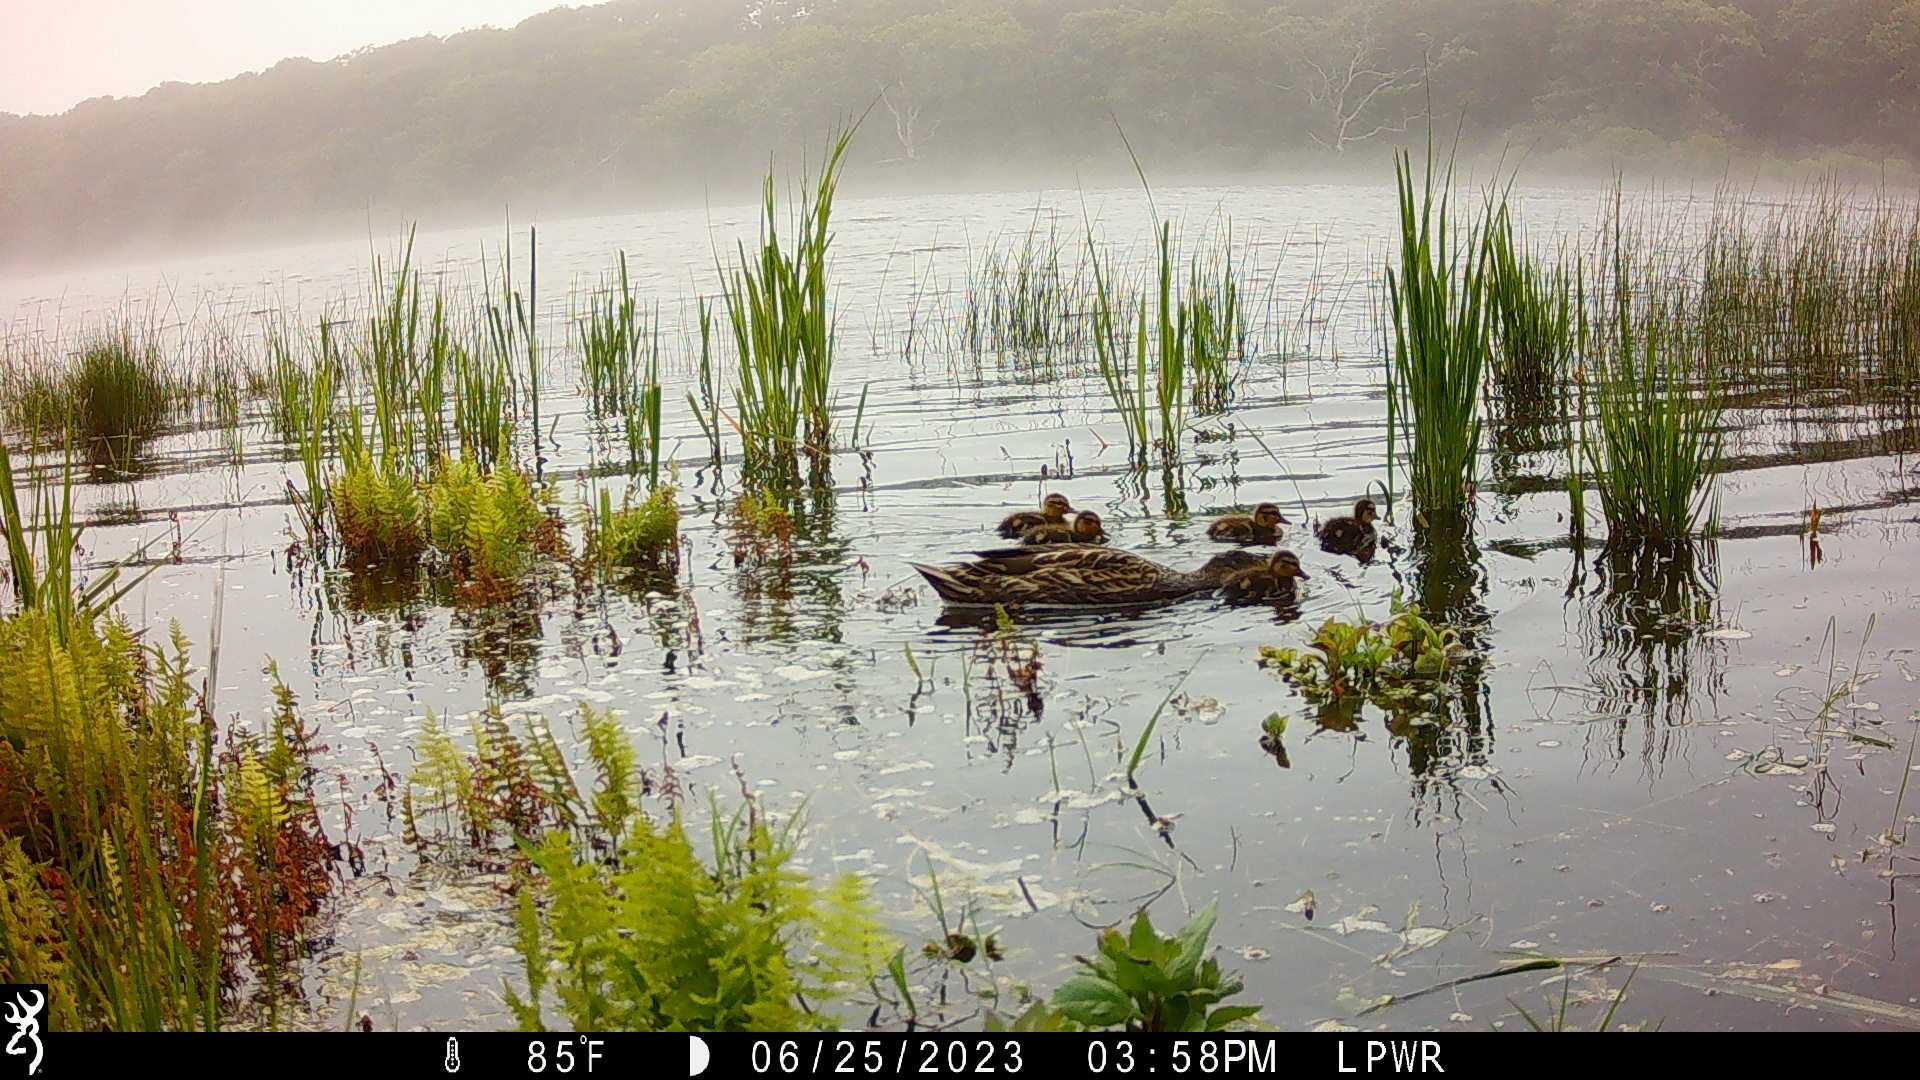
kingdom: Animalia
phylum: Chordata
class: Aves
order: Anseriformes
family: Anatidae
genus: Anas
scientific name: Anas platyrhynchos
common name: Mallard
